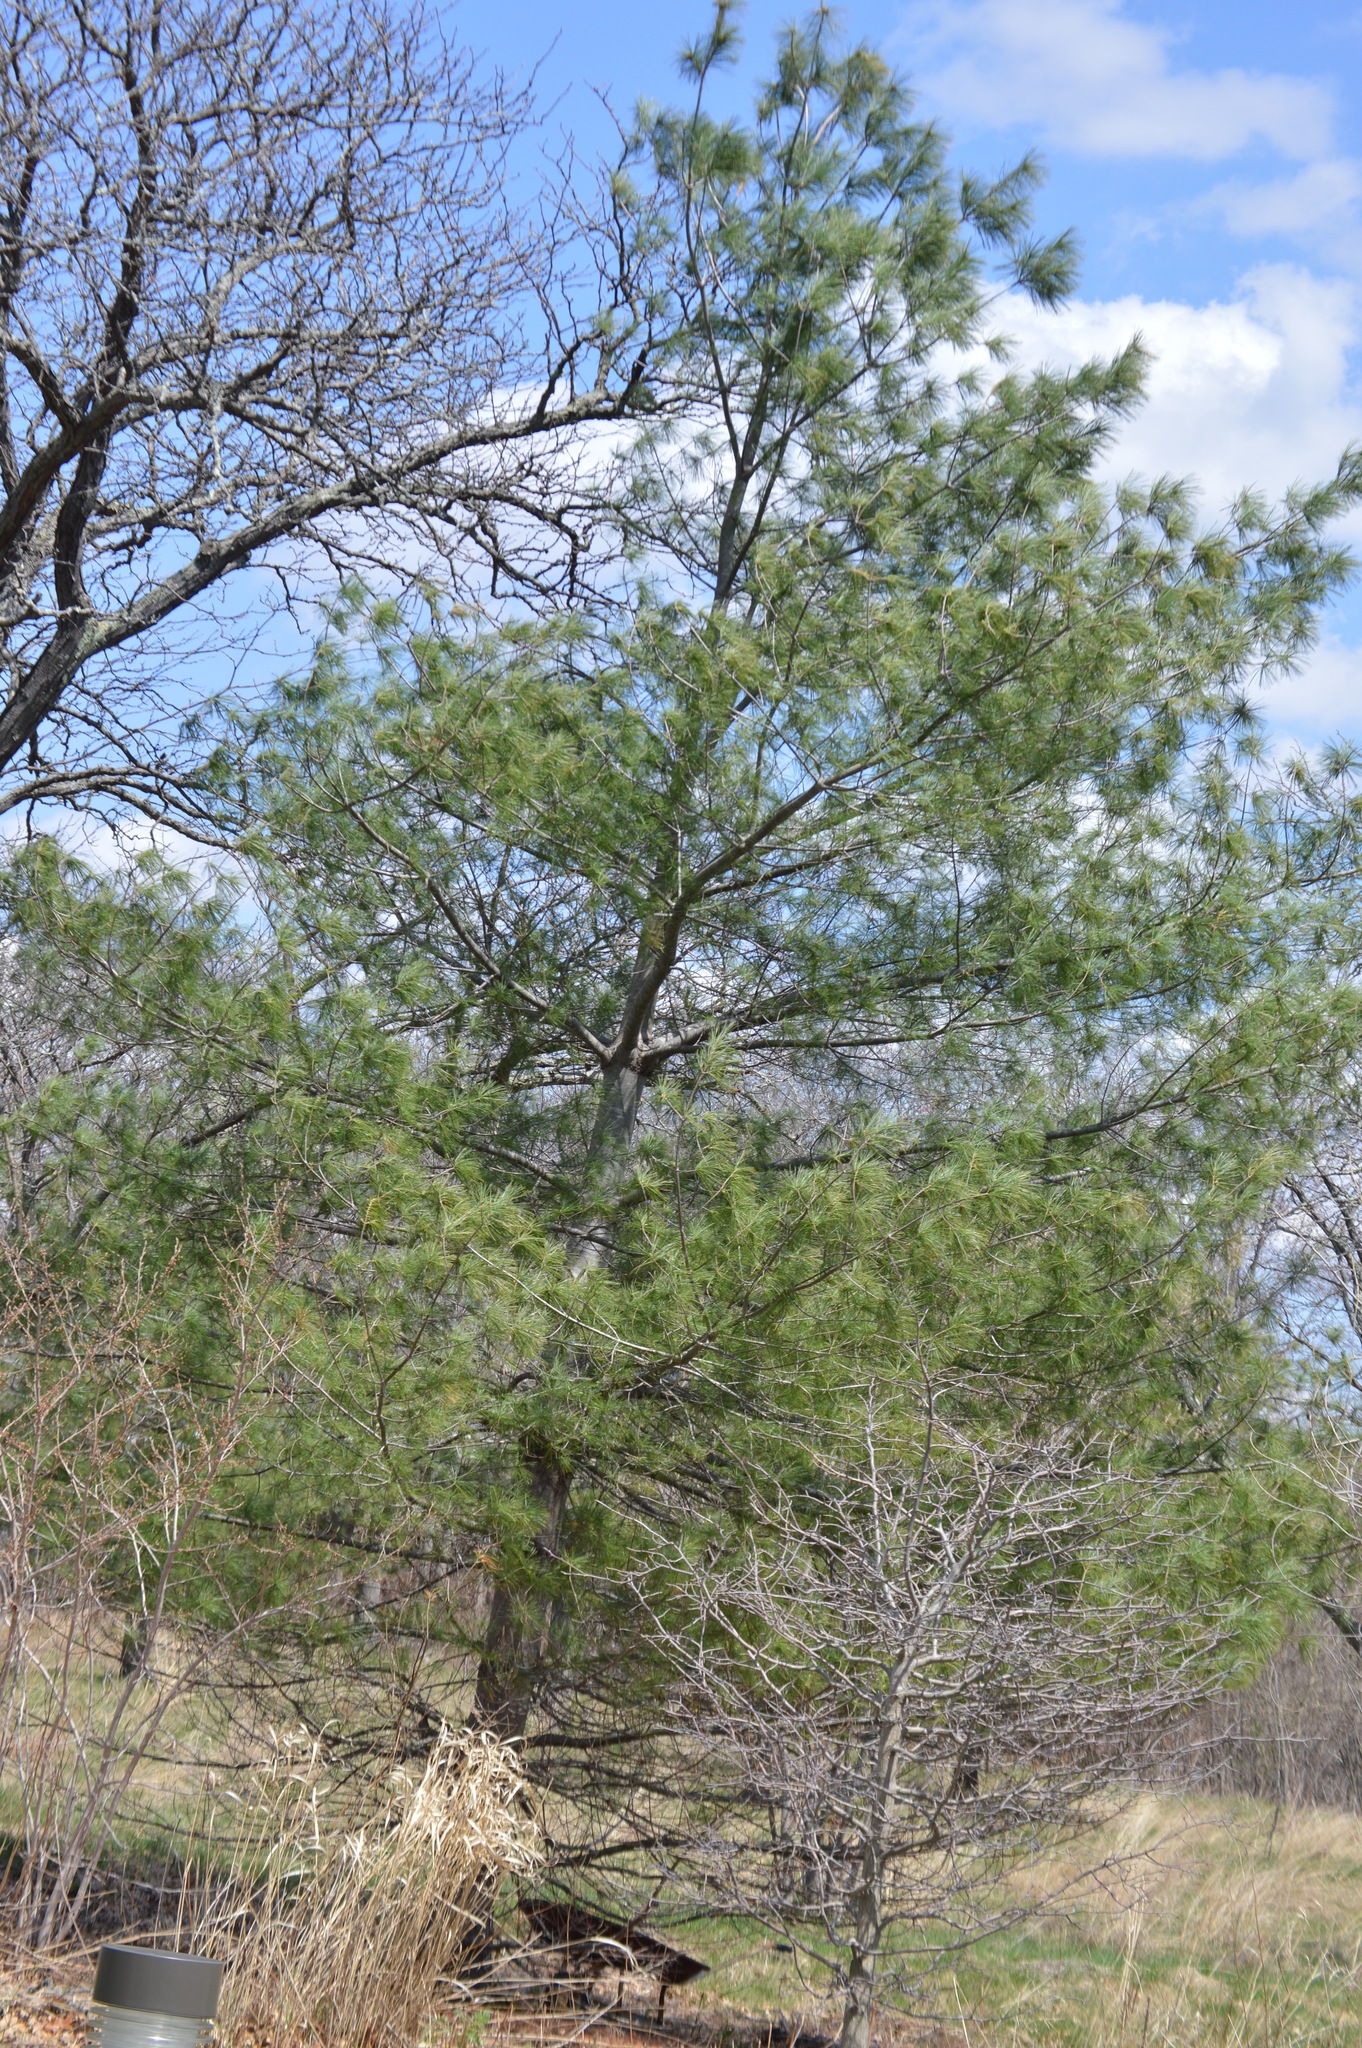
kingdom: Plantae
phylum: Tracheophyta
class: Pinopsida
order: Pinales
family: Pinaceae
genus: Pinus
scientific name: Pinus strobus
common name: Weymouth pine
